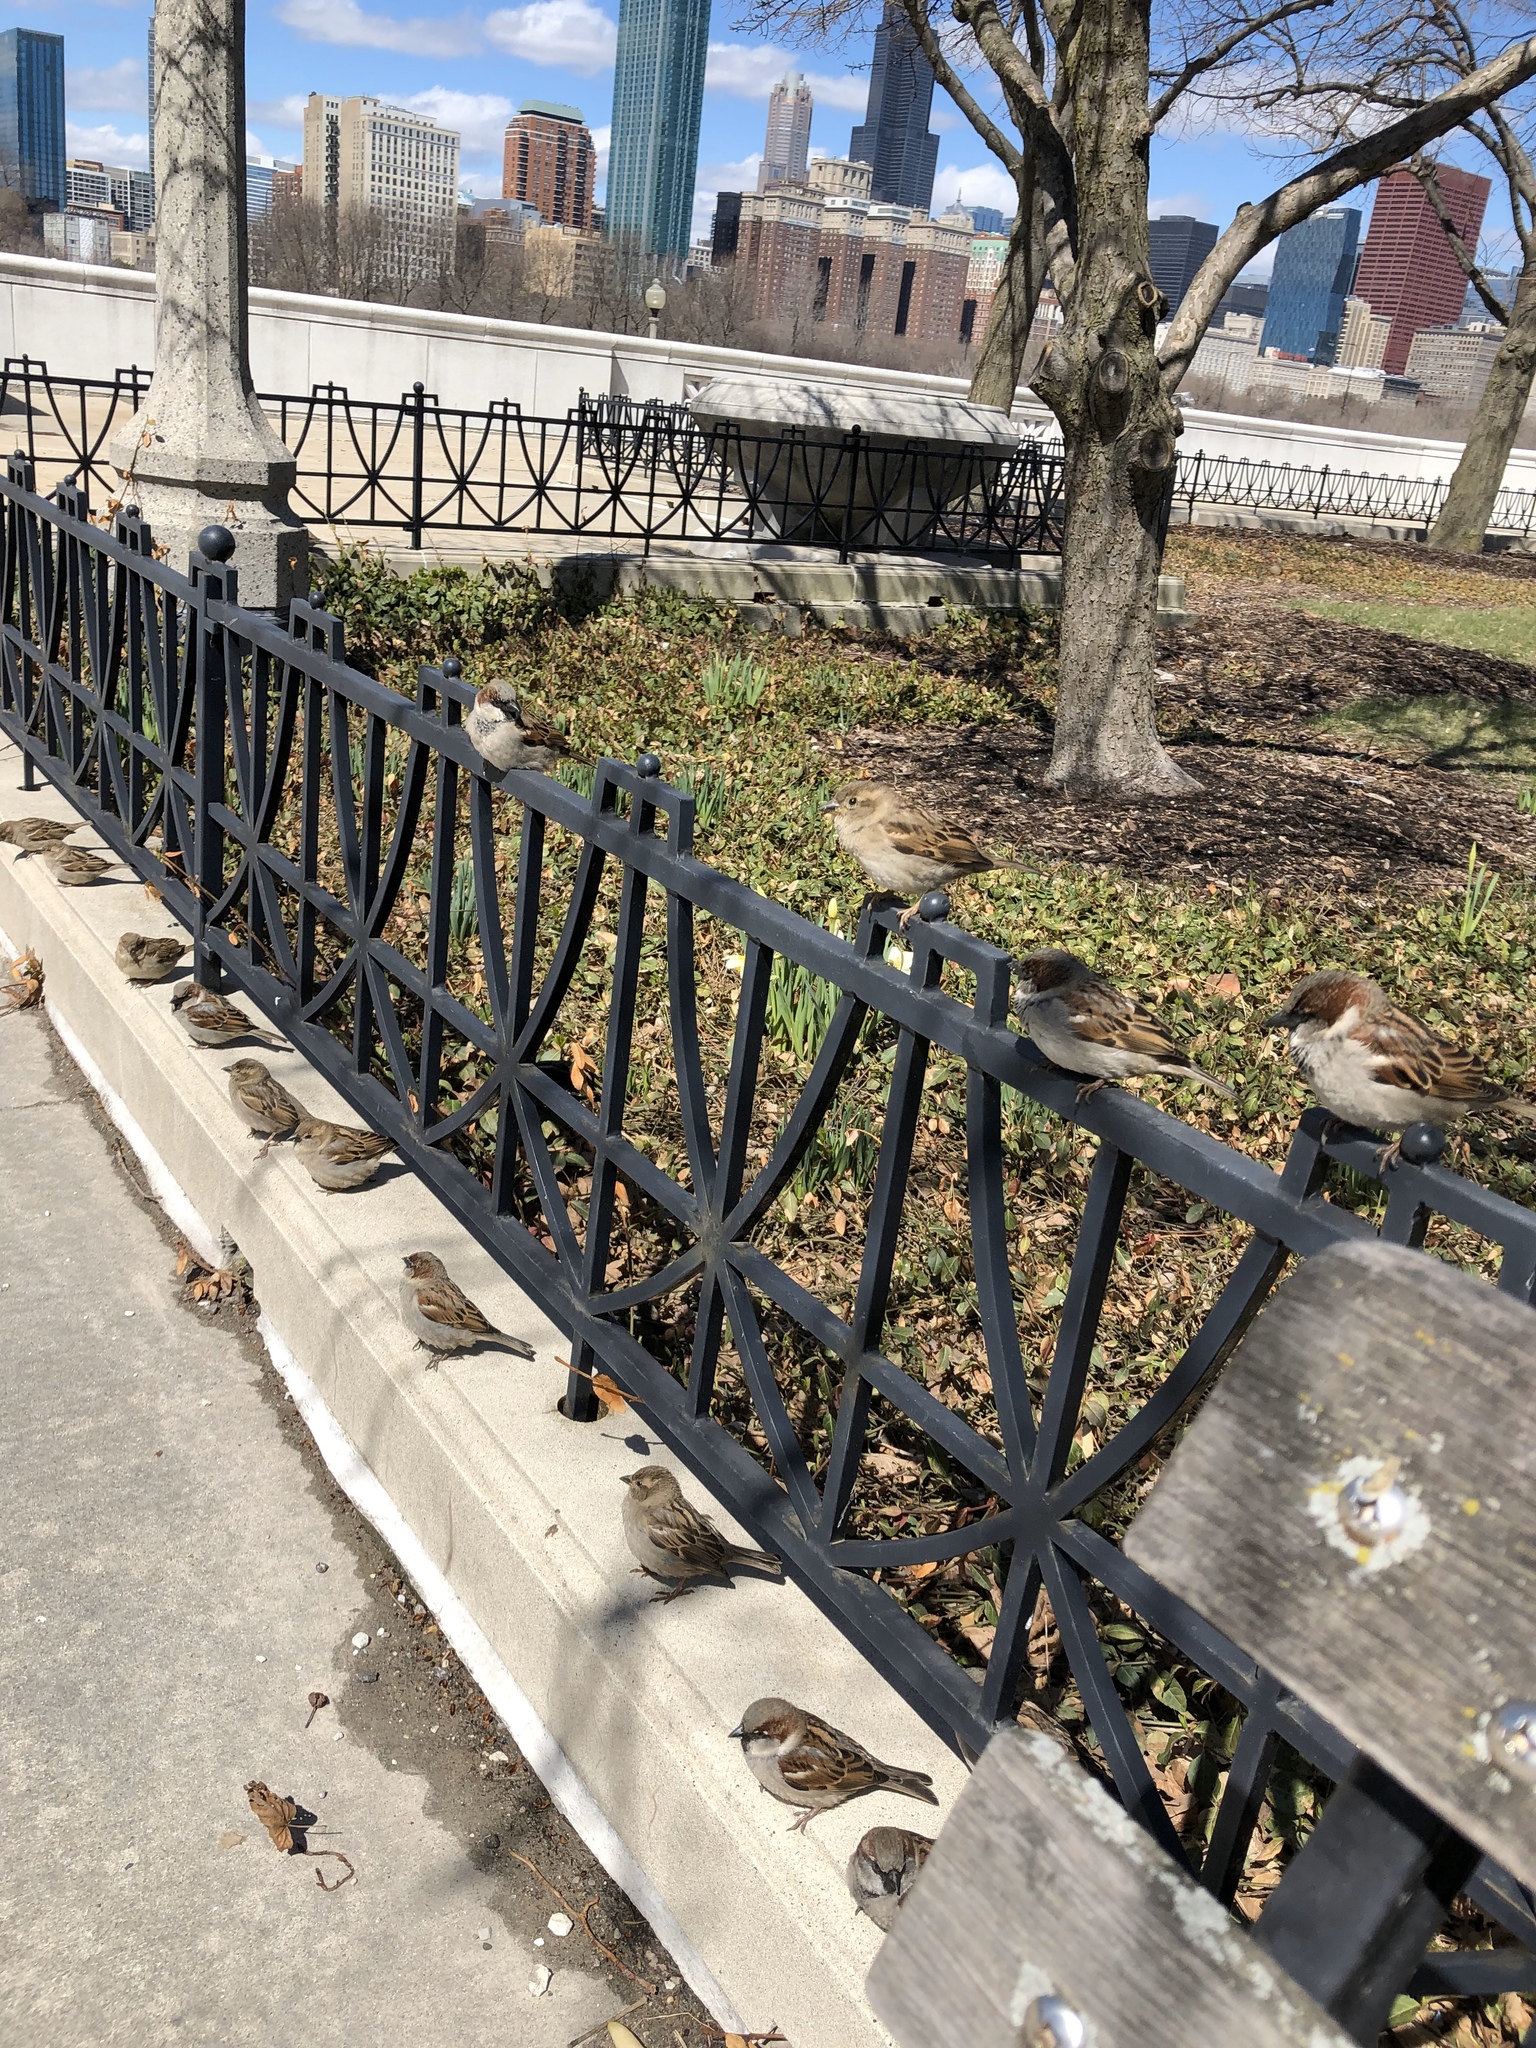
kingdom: Animalia
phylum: Chordata
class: Aves
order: Passeriformes
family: Passeridae
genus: Passer
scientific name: Passer domesticus
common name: House sparrow
